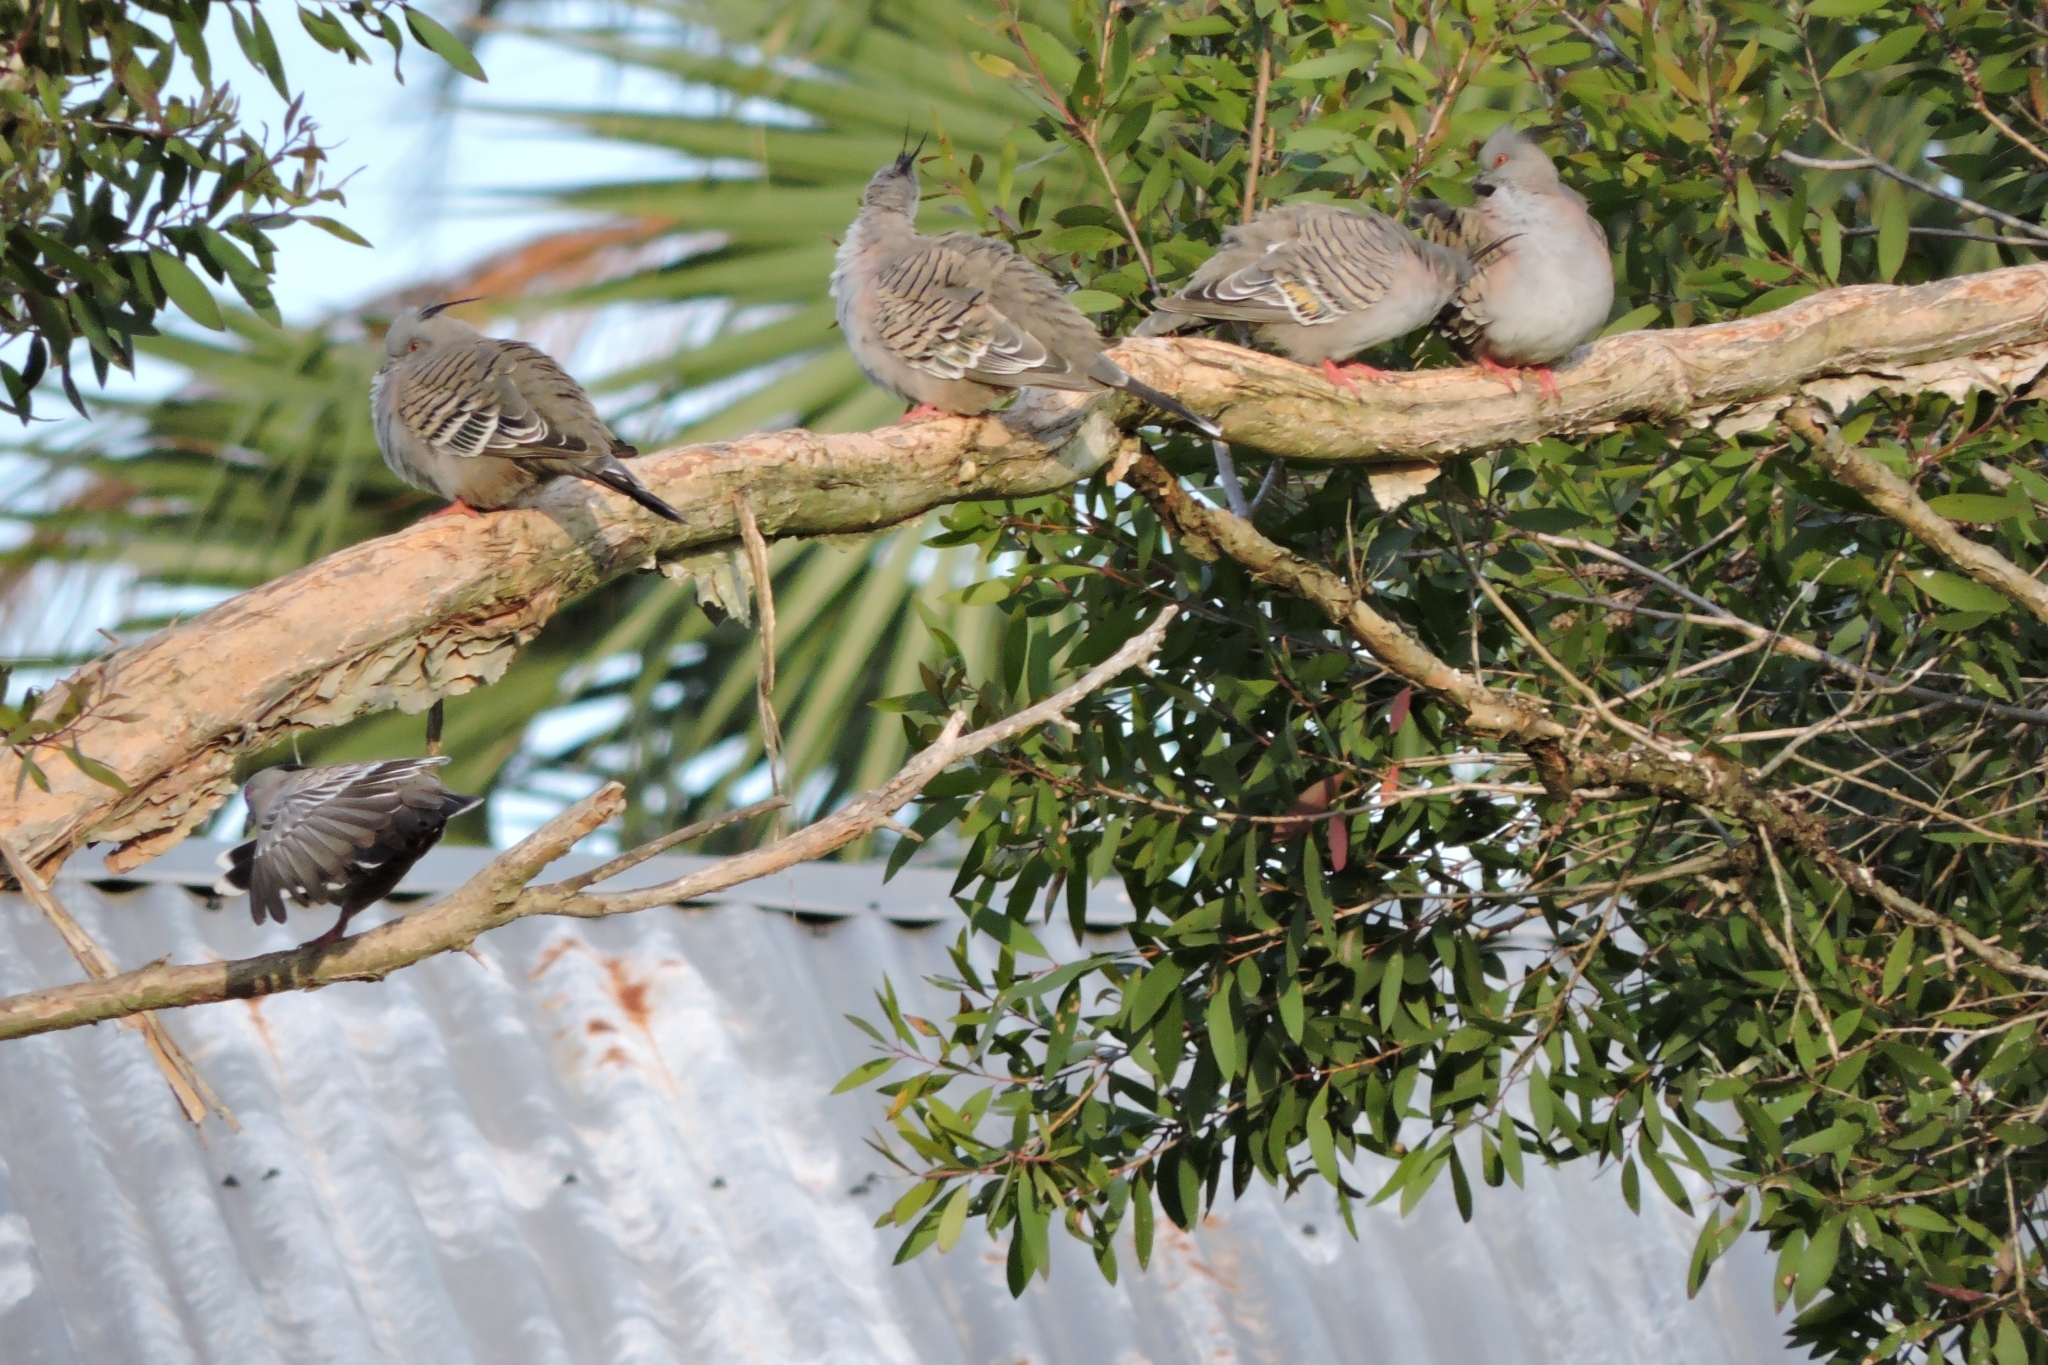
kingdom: Animalia
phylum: Chordata
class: Aves
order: Columbiformes
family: Columbidae
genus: Ocyphaps
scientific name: Ocyphaps lophotes
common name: Crested pigeon
